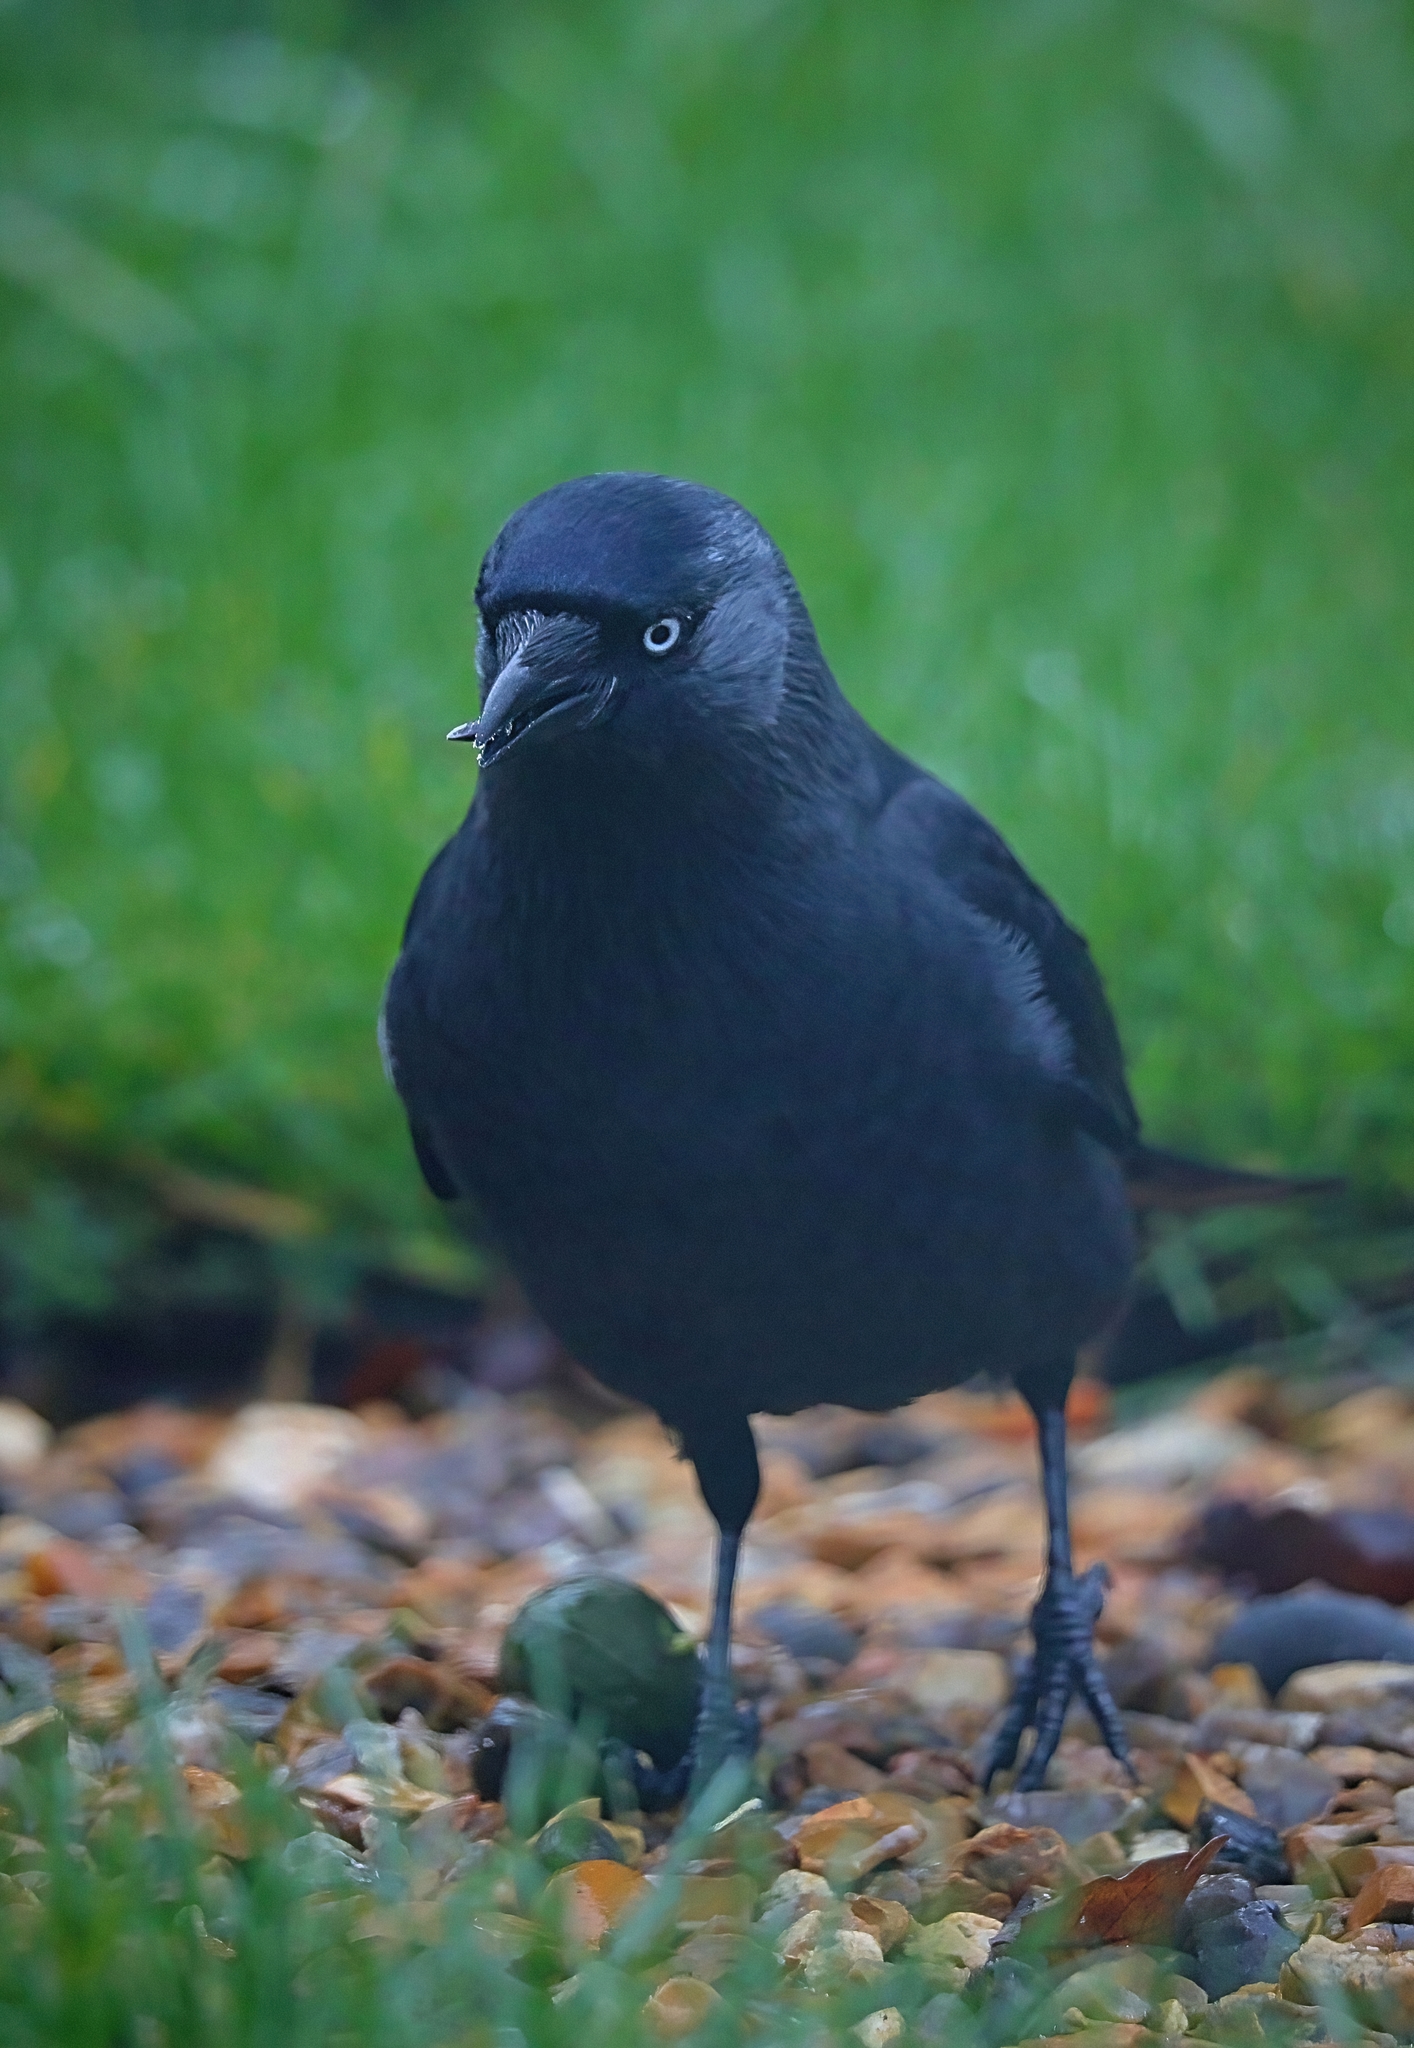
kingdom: Animalia
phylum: Chordata
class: Aves
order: Passeriformes
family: Corvidae
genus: Coloeus
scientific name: Coloeus monedula
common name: Western jackdaw
